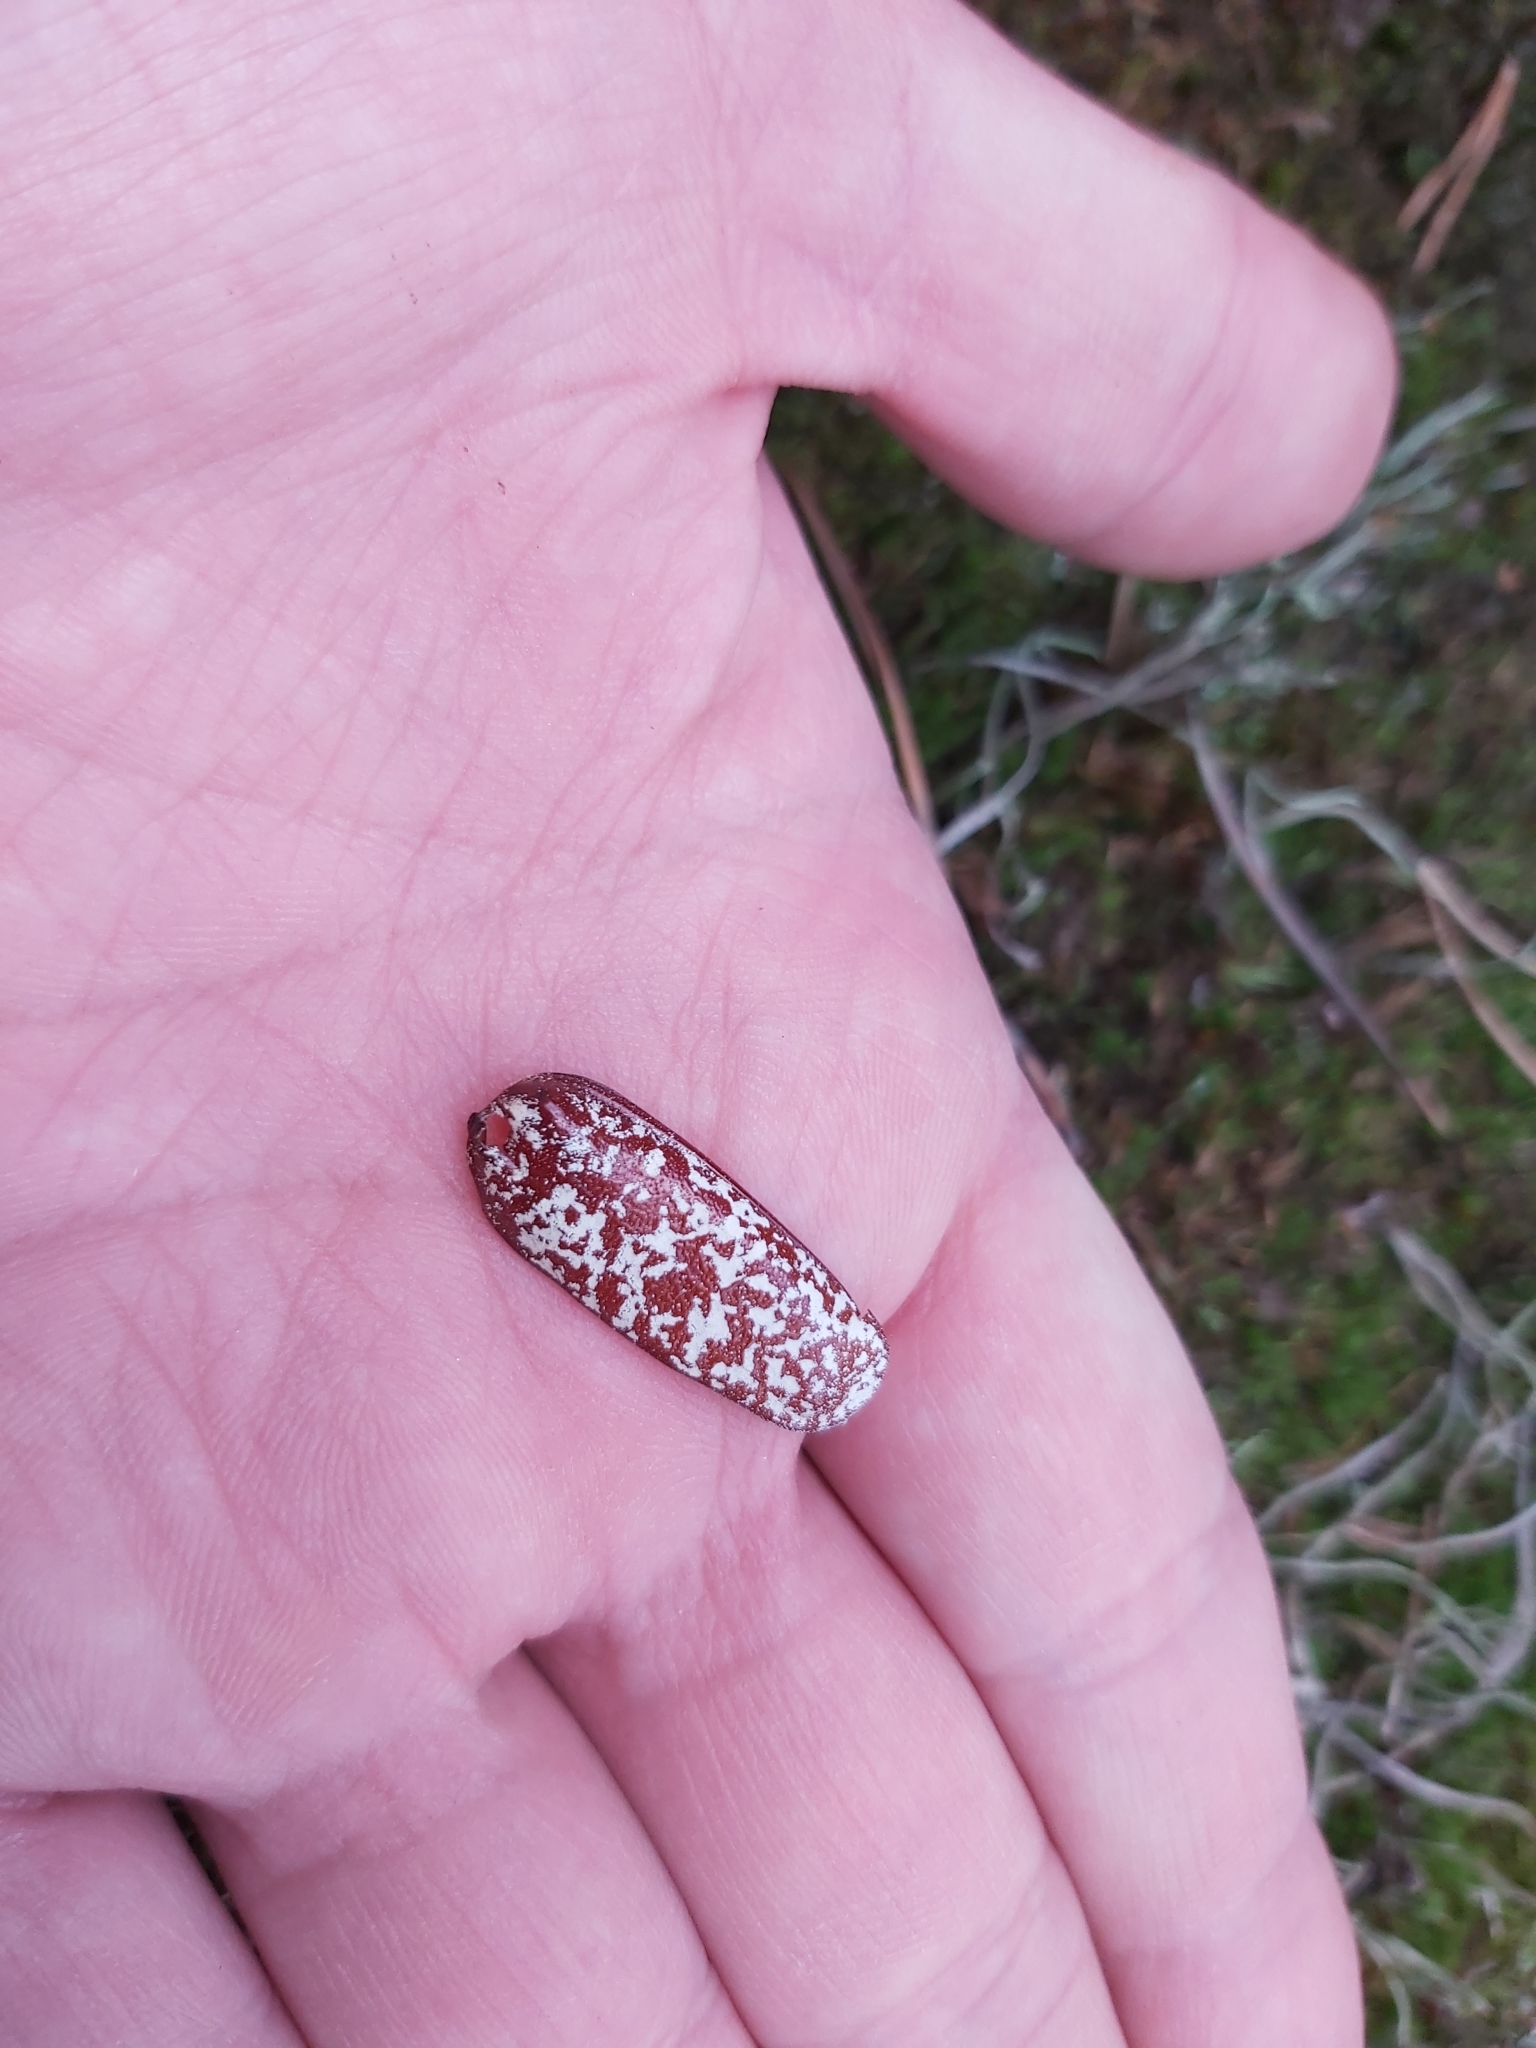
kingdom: Animalia
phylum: Arthropoda
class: Insecta
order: Coleoptera
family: Scarabaeidae
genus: Polyphylla
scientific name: Polyphylla fullo
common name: Pine chafer
